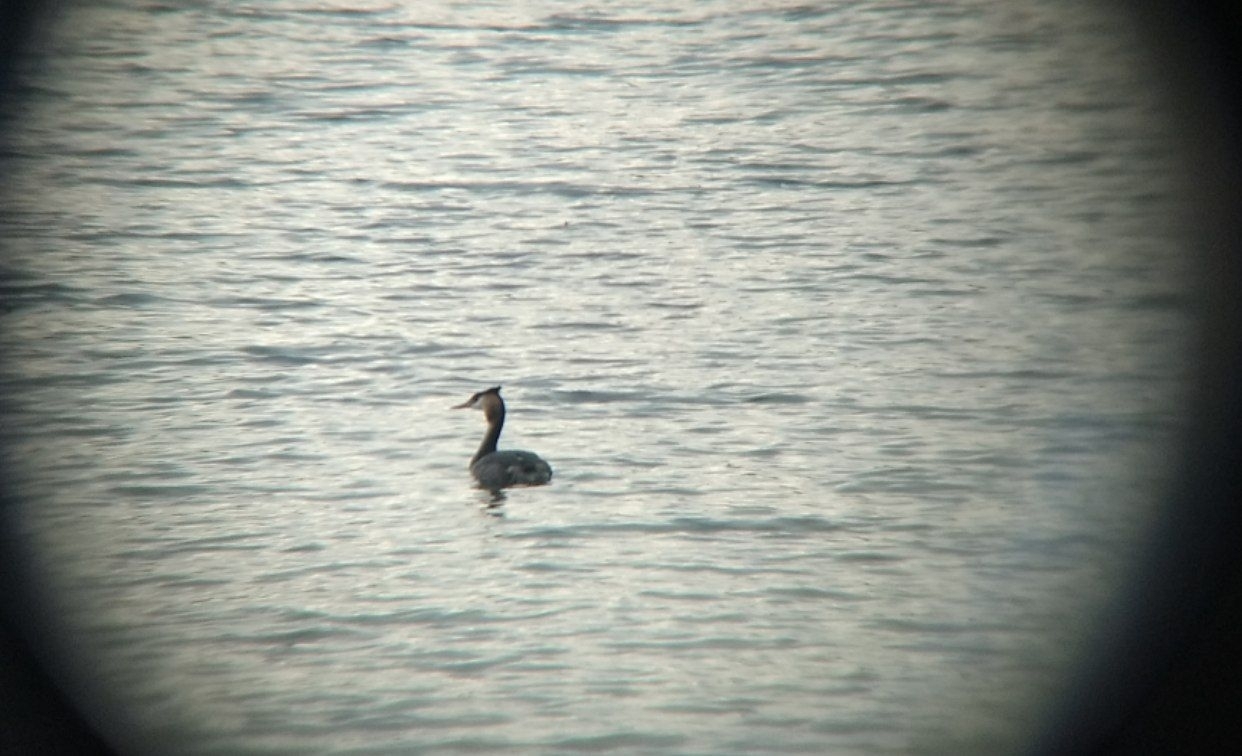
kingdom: Animalia
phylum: Chordata
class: Aves
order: Podicipediformes
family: Podicipedidae
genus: Podiceps
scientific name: Podiceps cristatus
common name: Great crested grebe
